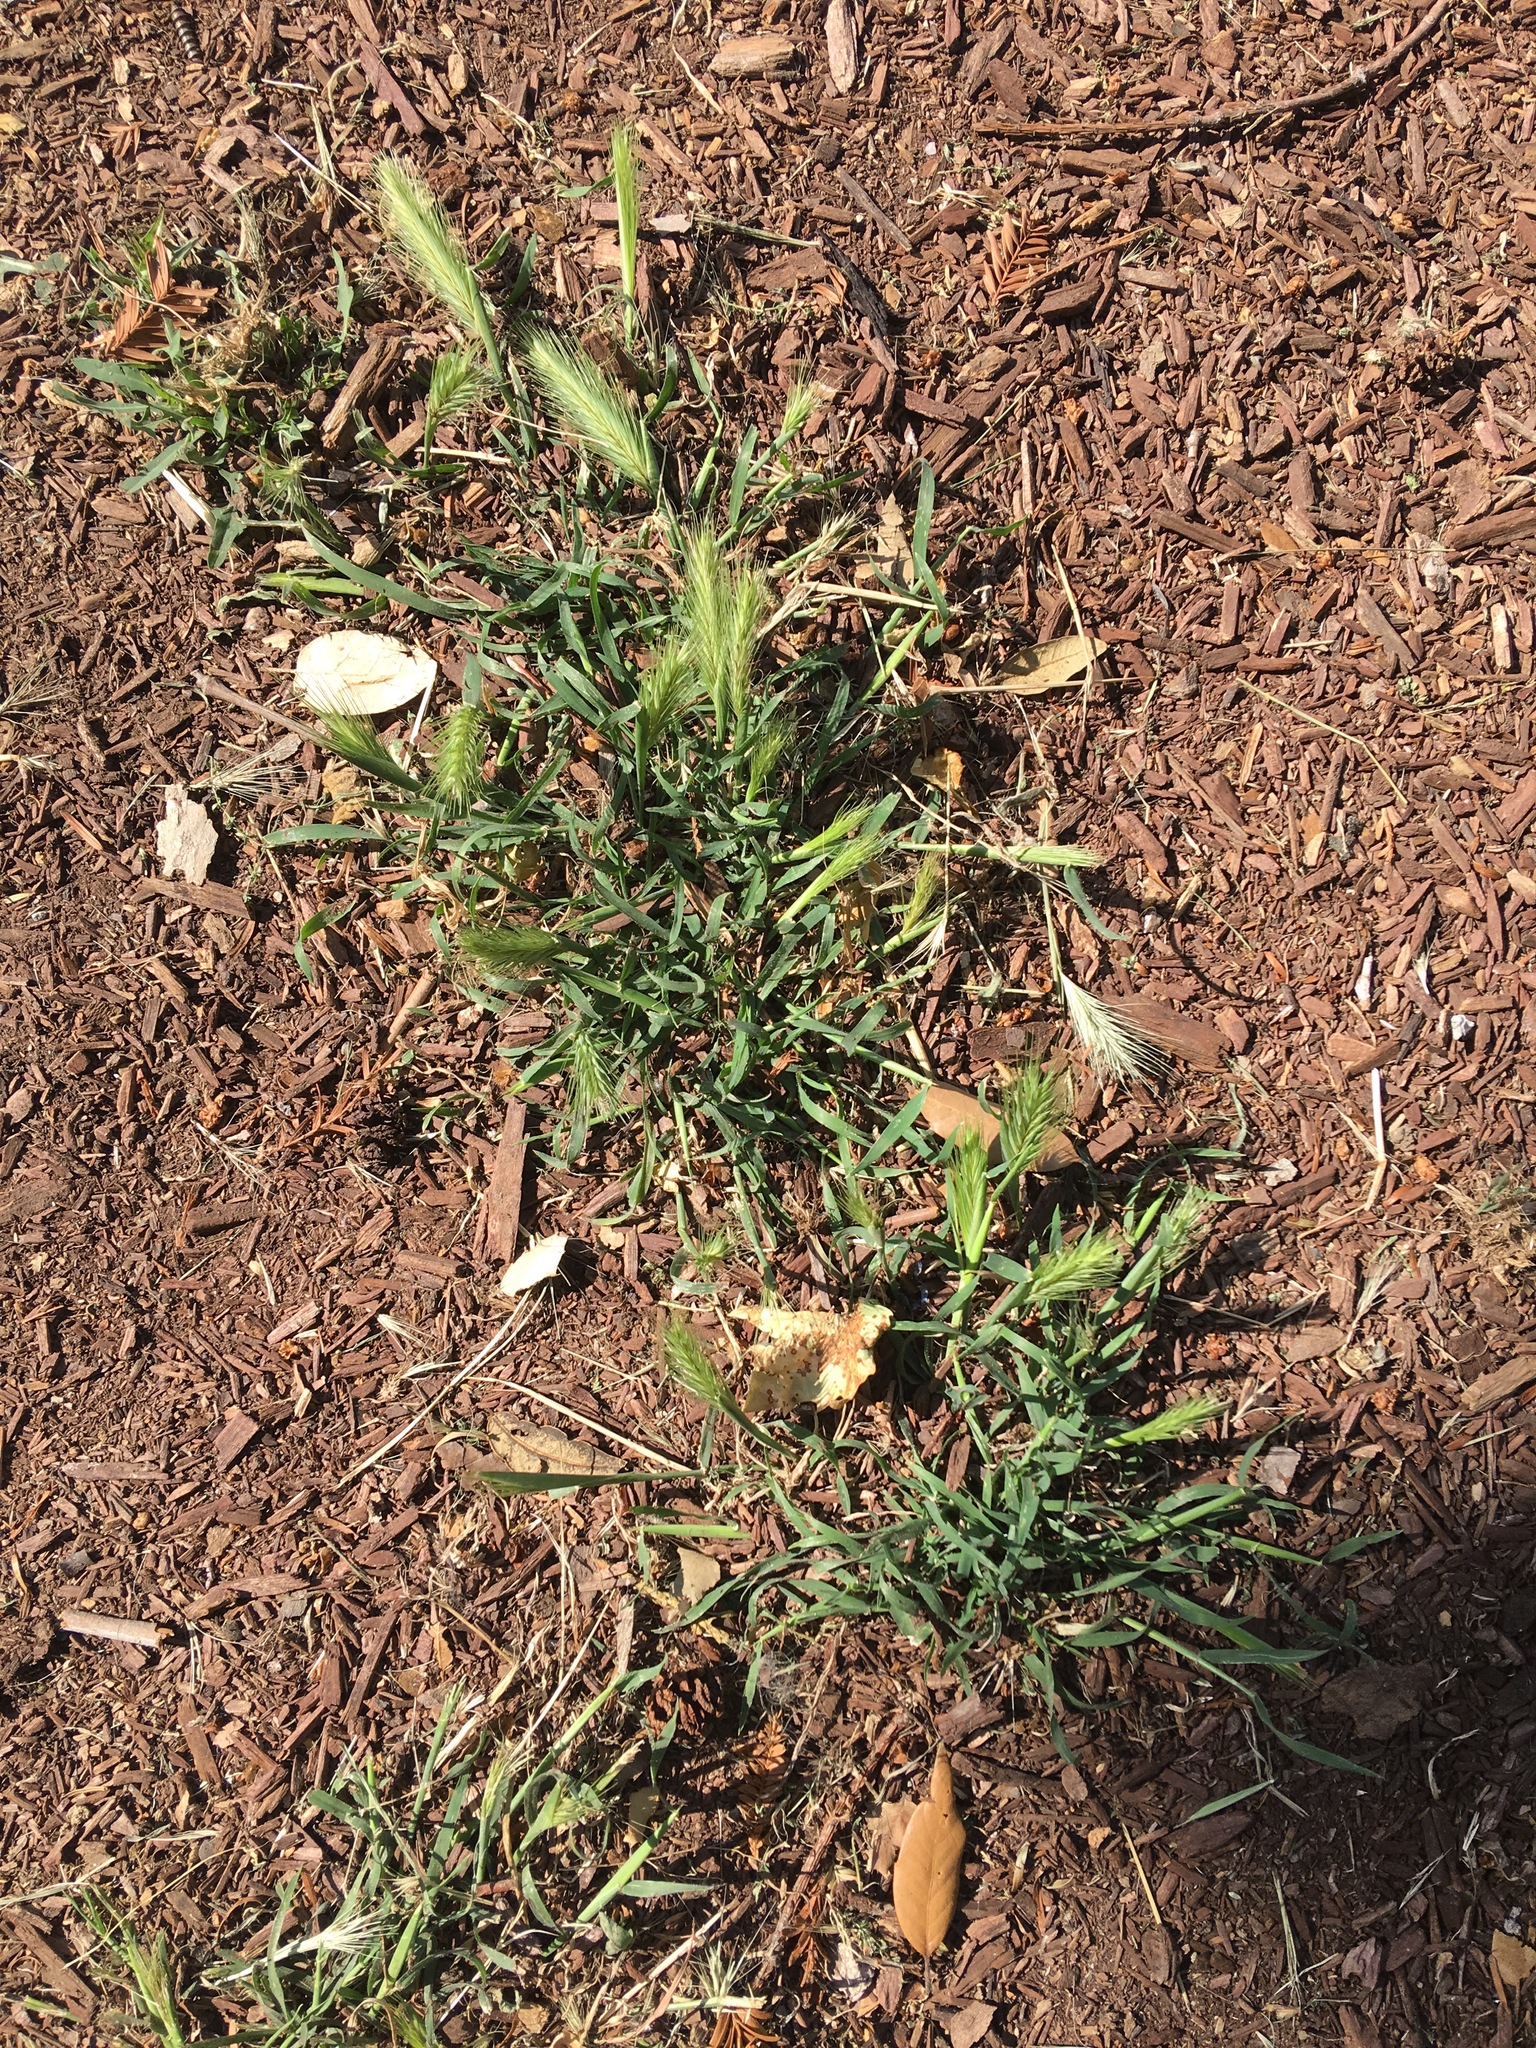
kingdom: Plantae
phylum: Tracheophyta
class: Liliopsida
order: Poales
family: Poaceae
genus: Hordeum
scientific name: Hordeum murinum
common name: Wall barley
